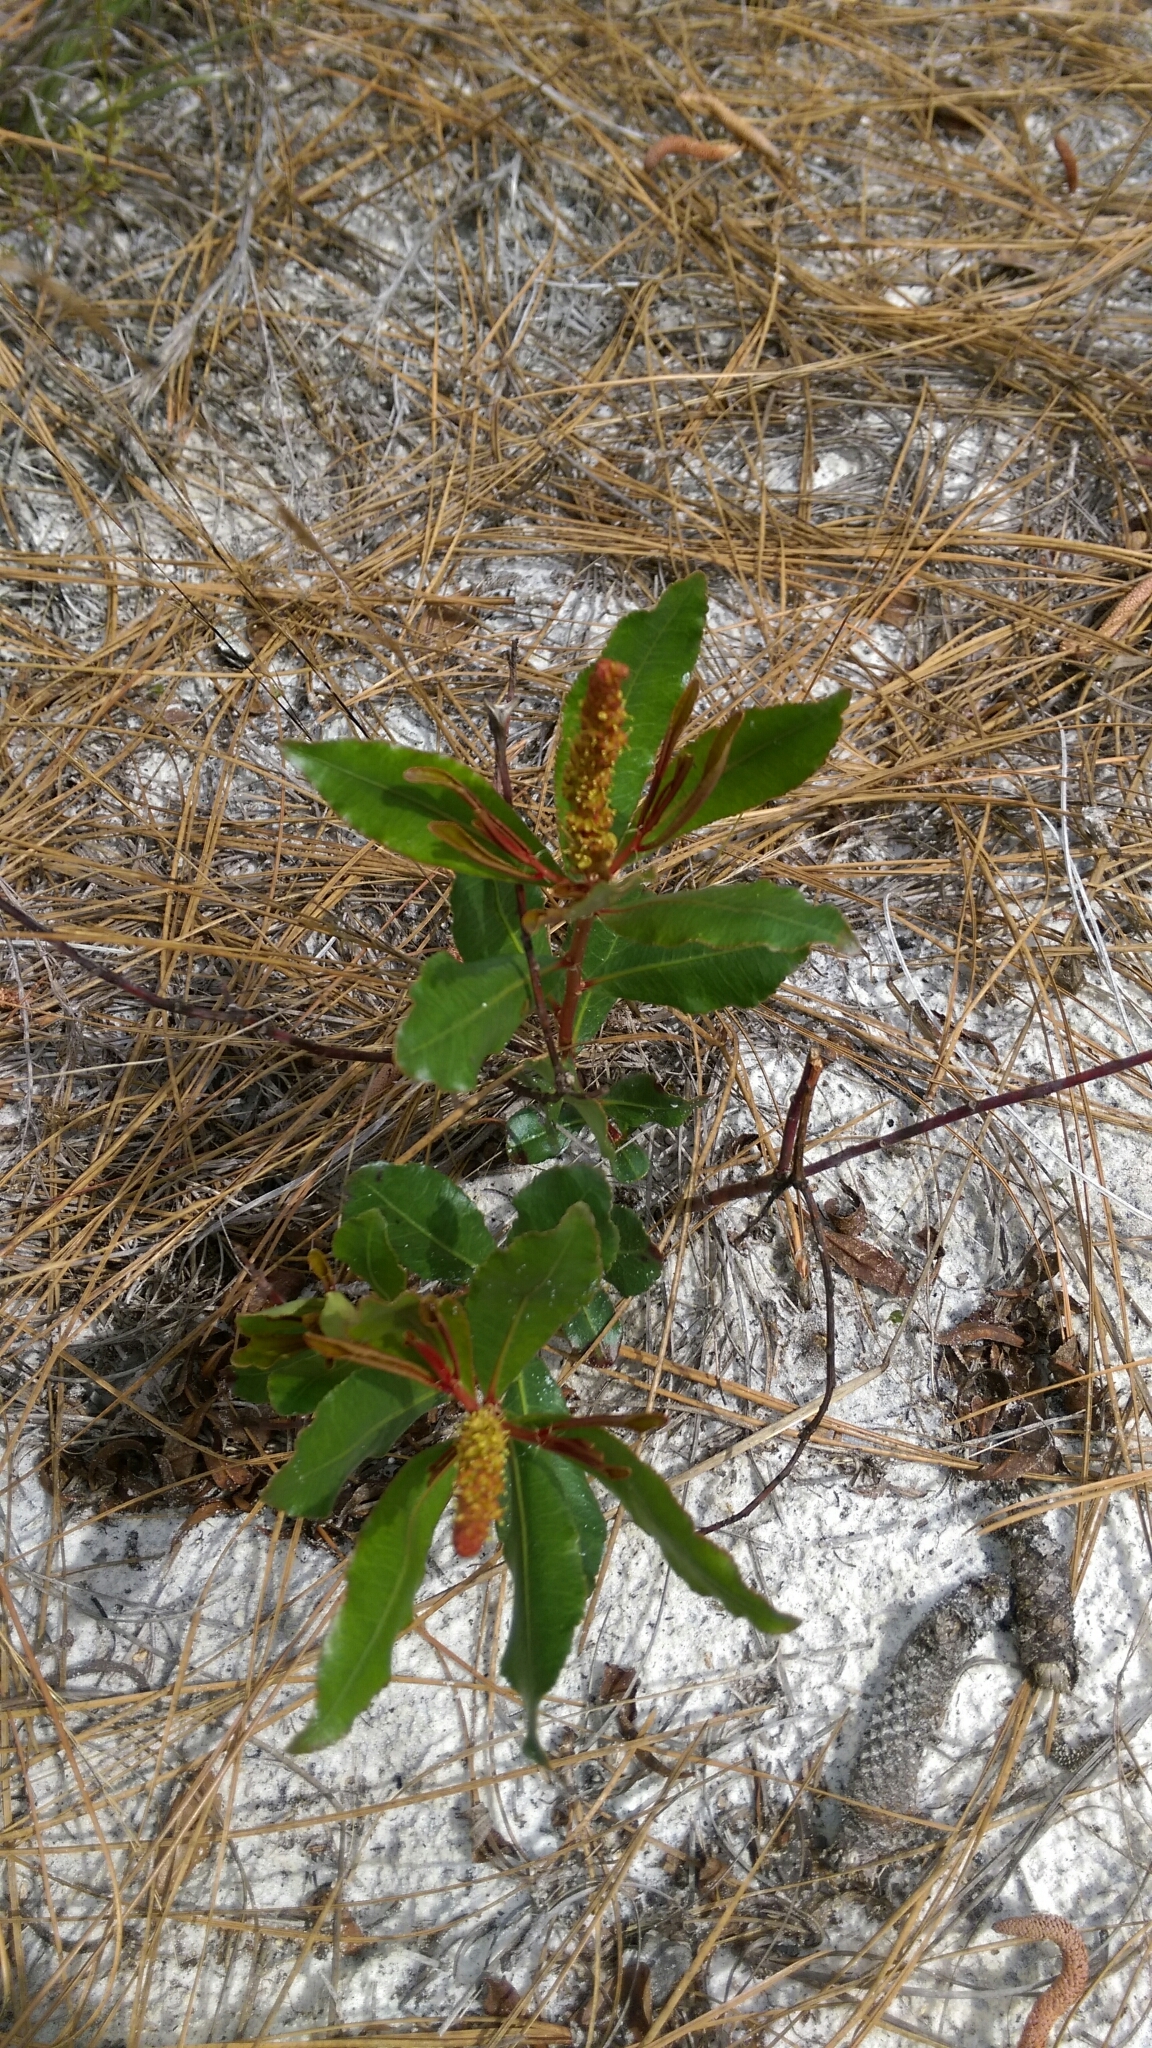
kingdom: Plantae
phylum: Tracheophyta
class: Magnoliopsida
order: Malpighiales
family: Euphorbiaceae
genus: Stillingia
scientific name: Stillingia sylvatica
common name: Queen's-delight
